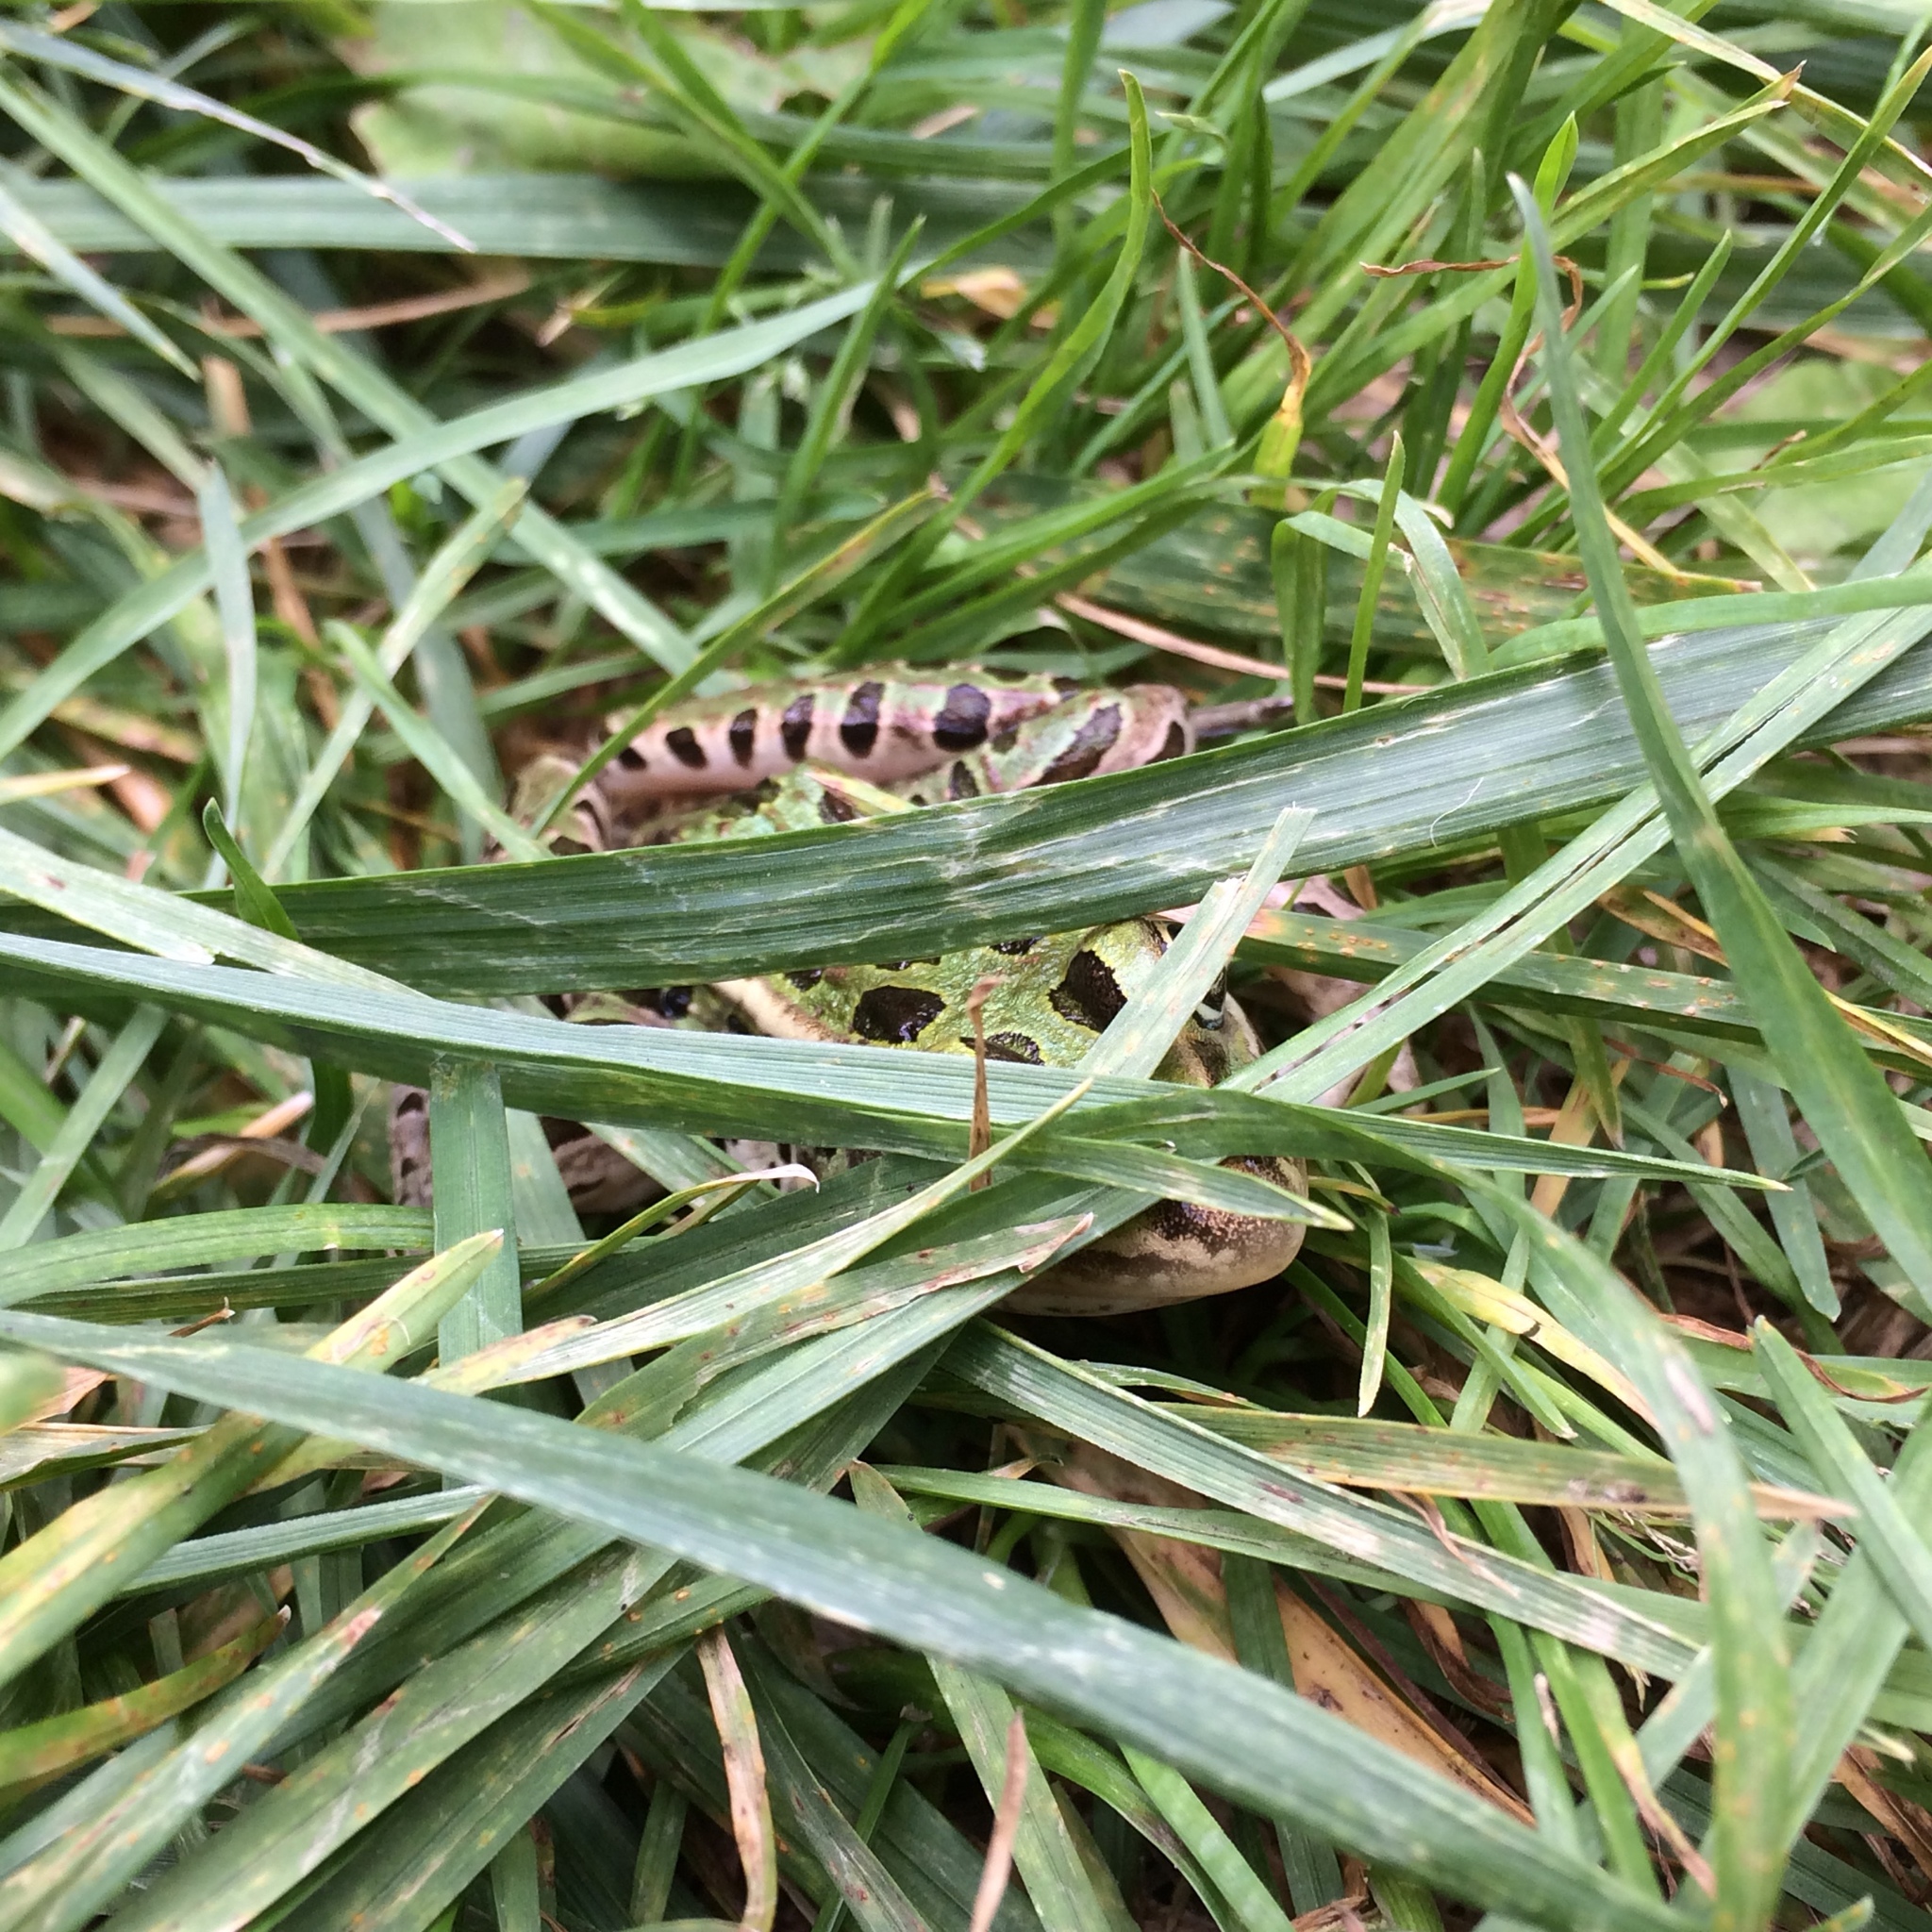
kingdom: Animalia
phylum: Chordata
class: Amphibia
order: Anura
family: Ranidae
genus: Lithobates
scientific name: Lithobates pipiens
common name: Northern leopard frog
